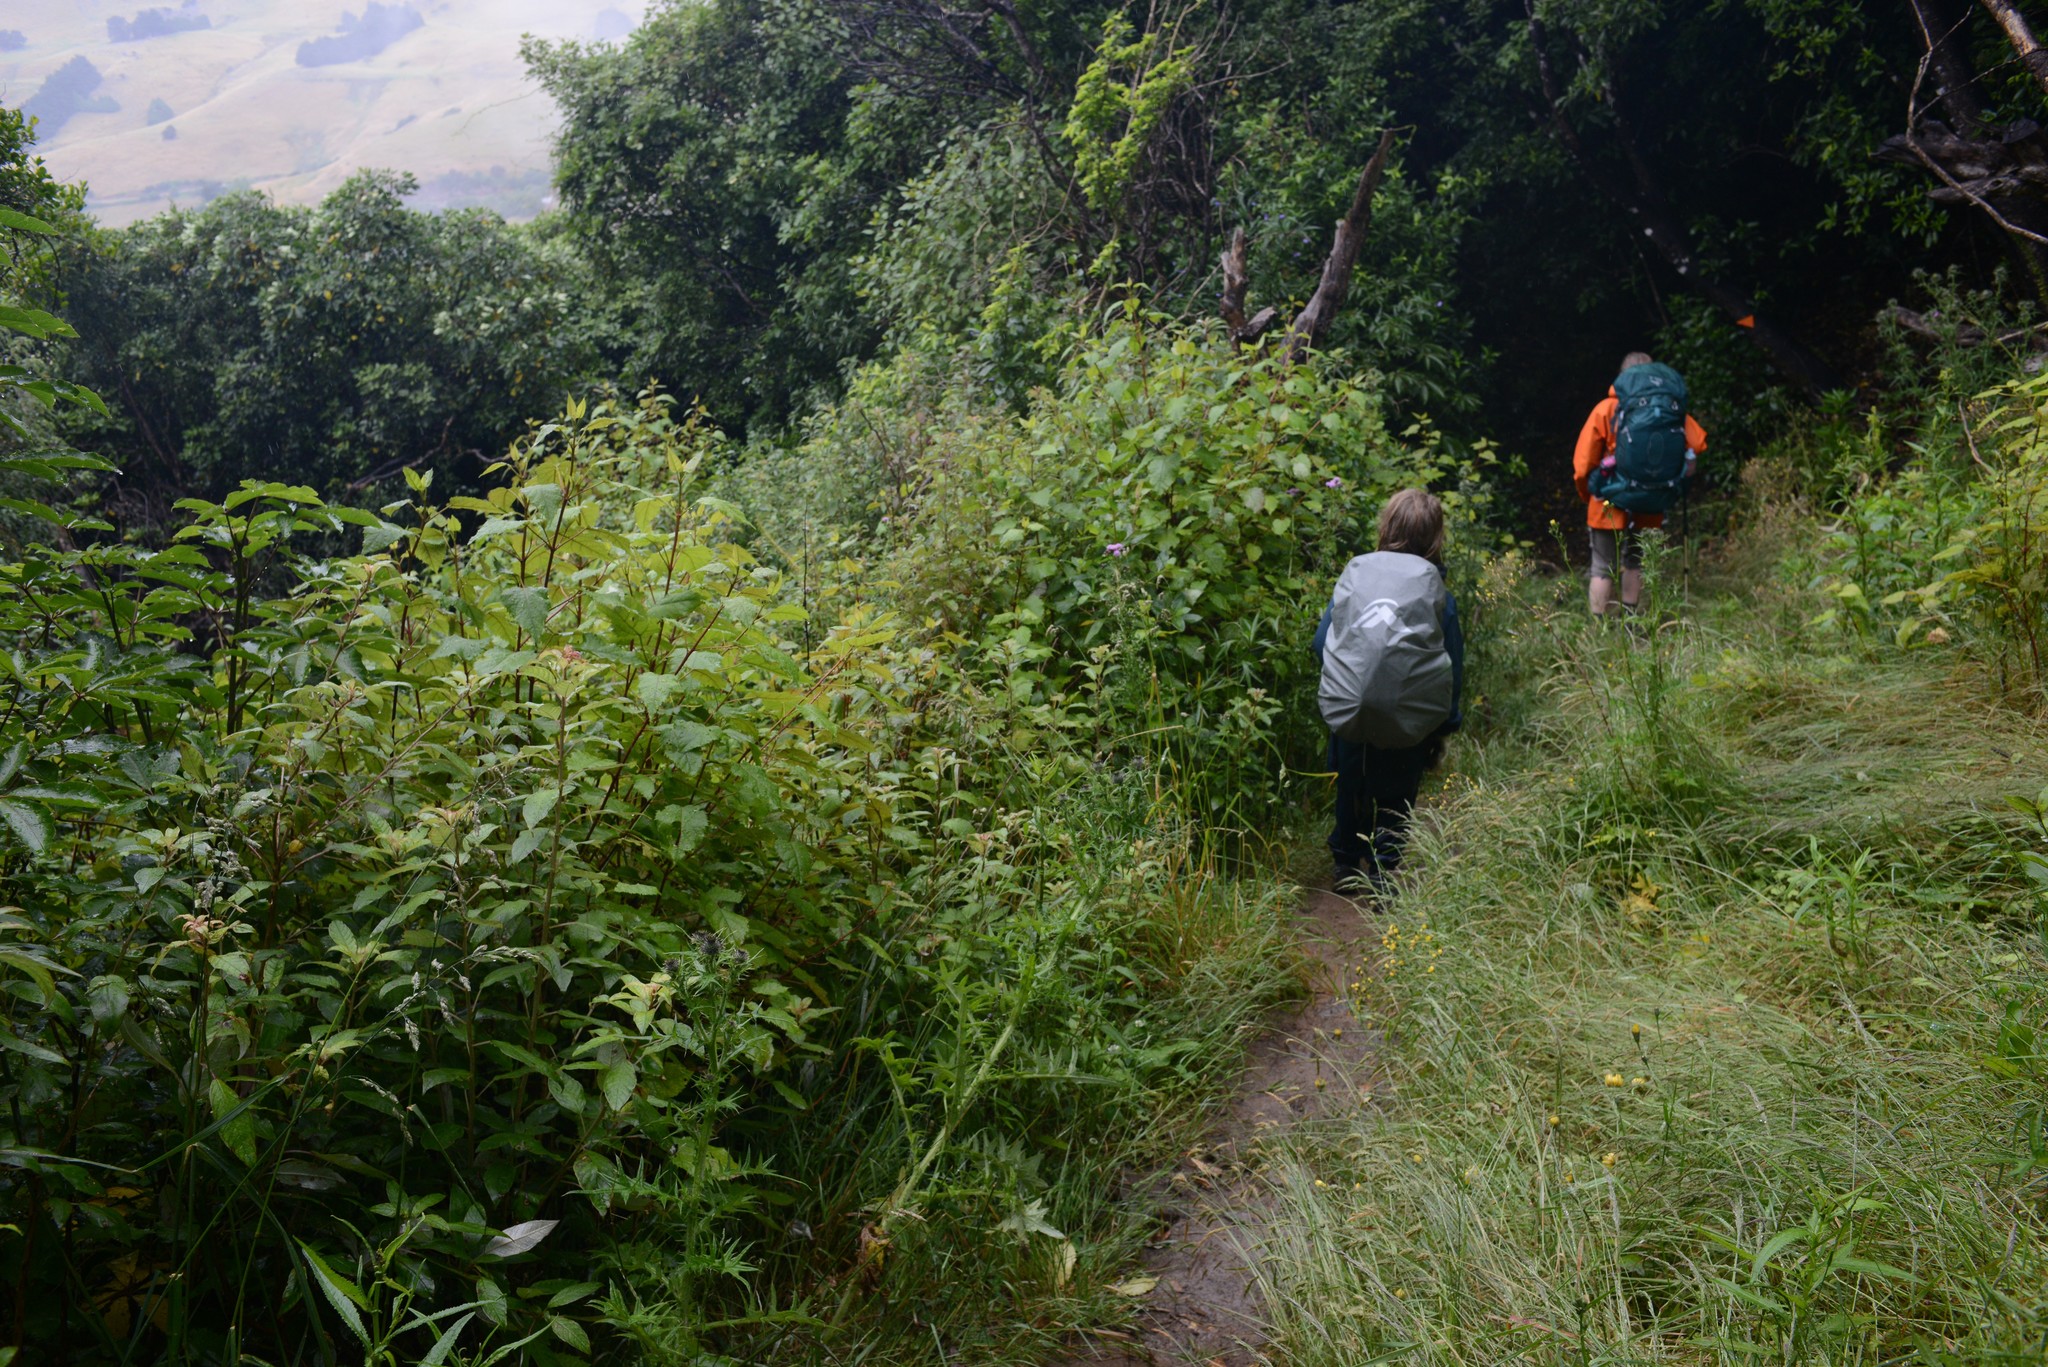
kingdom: Plantae
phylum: Tracheophyta
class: Magnoliopsida
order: Oxalidales
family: Elaeocarpaceae
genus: Aristotelia
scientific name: Aristotelia serrata
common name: New zealand wineberry
